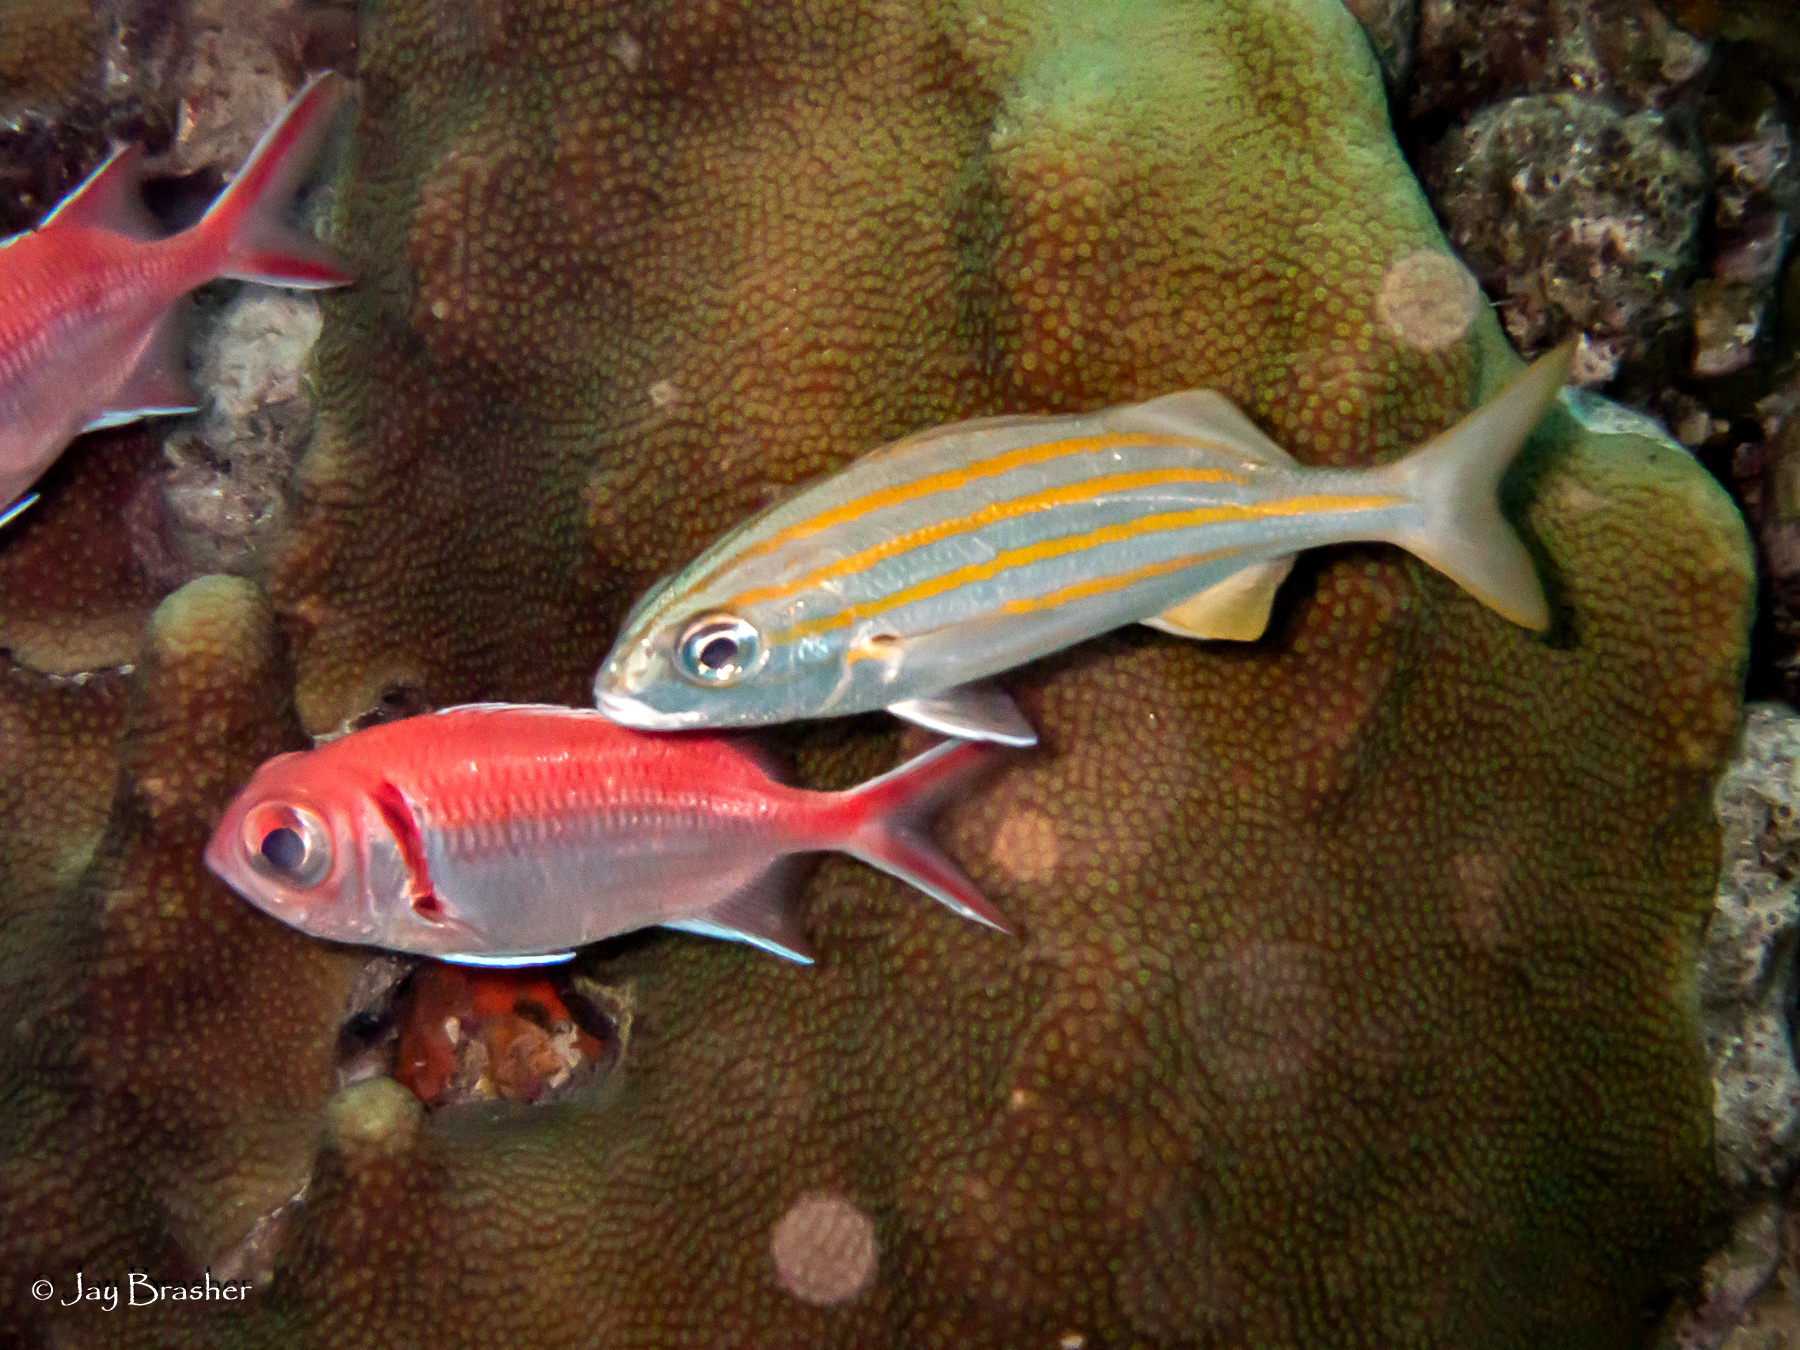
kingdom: Animalia
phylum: Chordata
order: Beryciformes
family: Holocentridae
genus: Myripristis
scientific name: Myripristis jacobus
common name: Blackbar soldierfish
